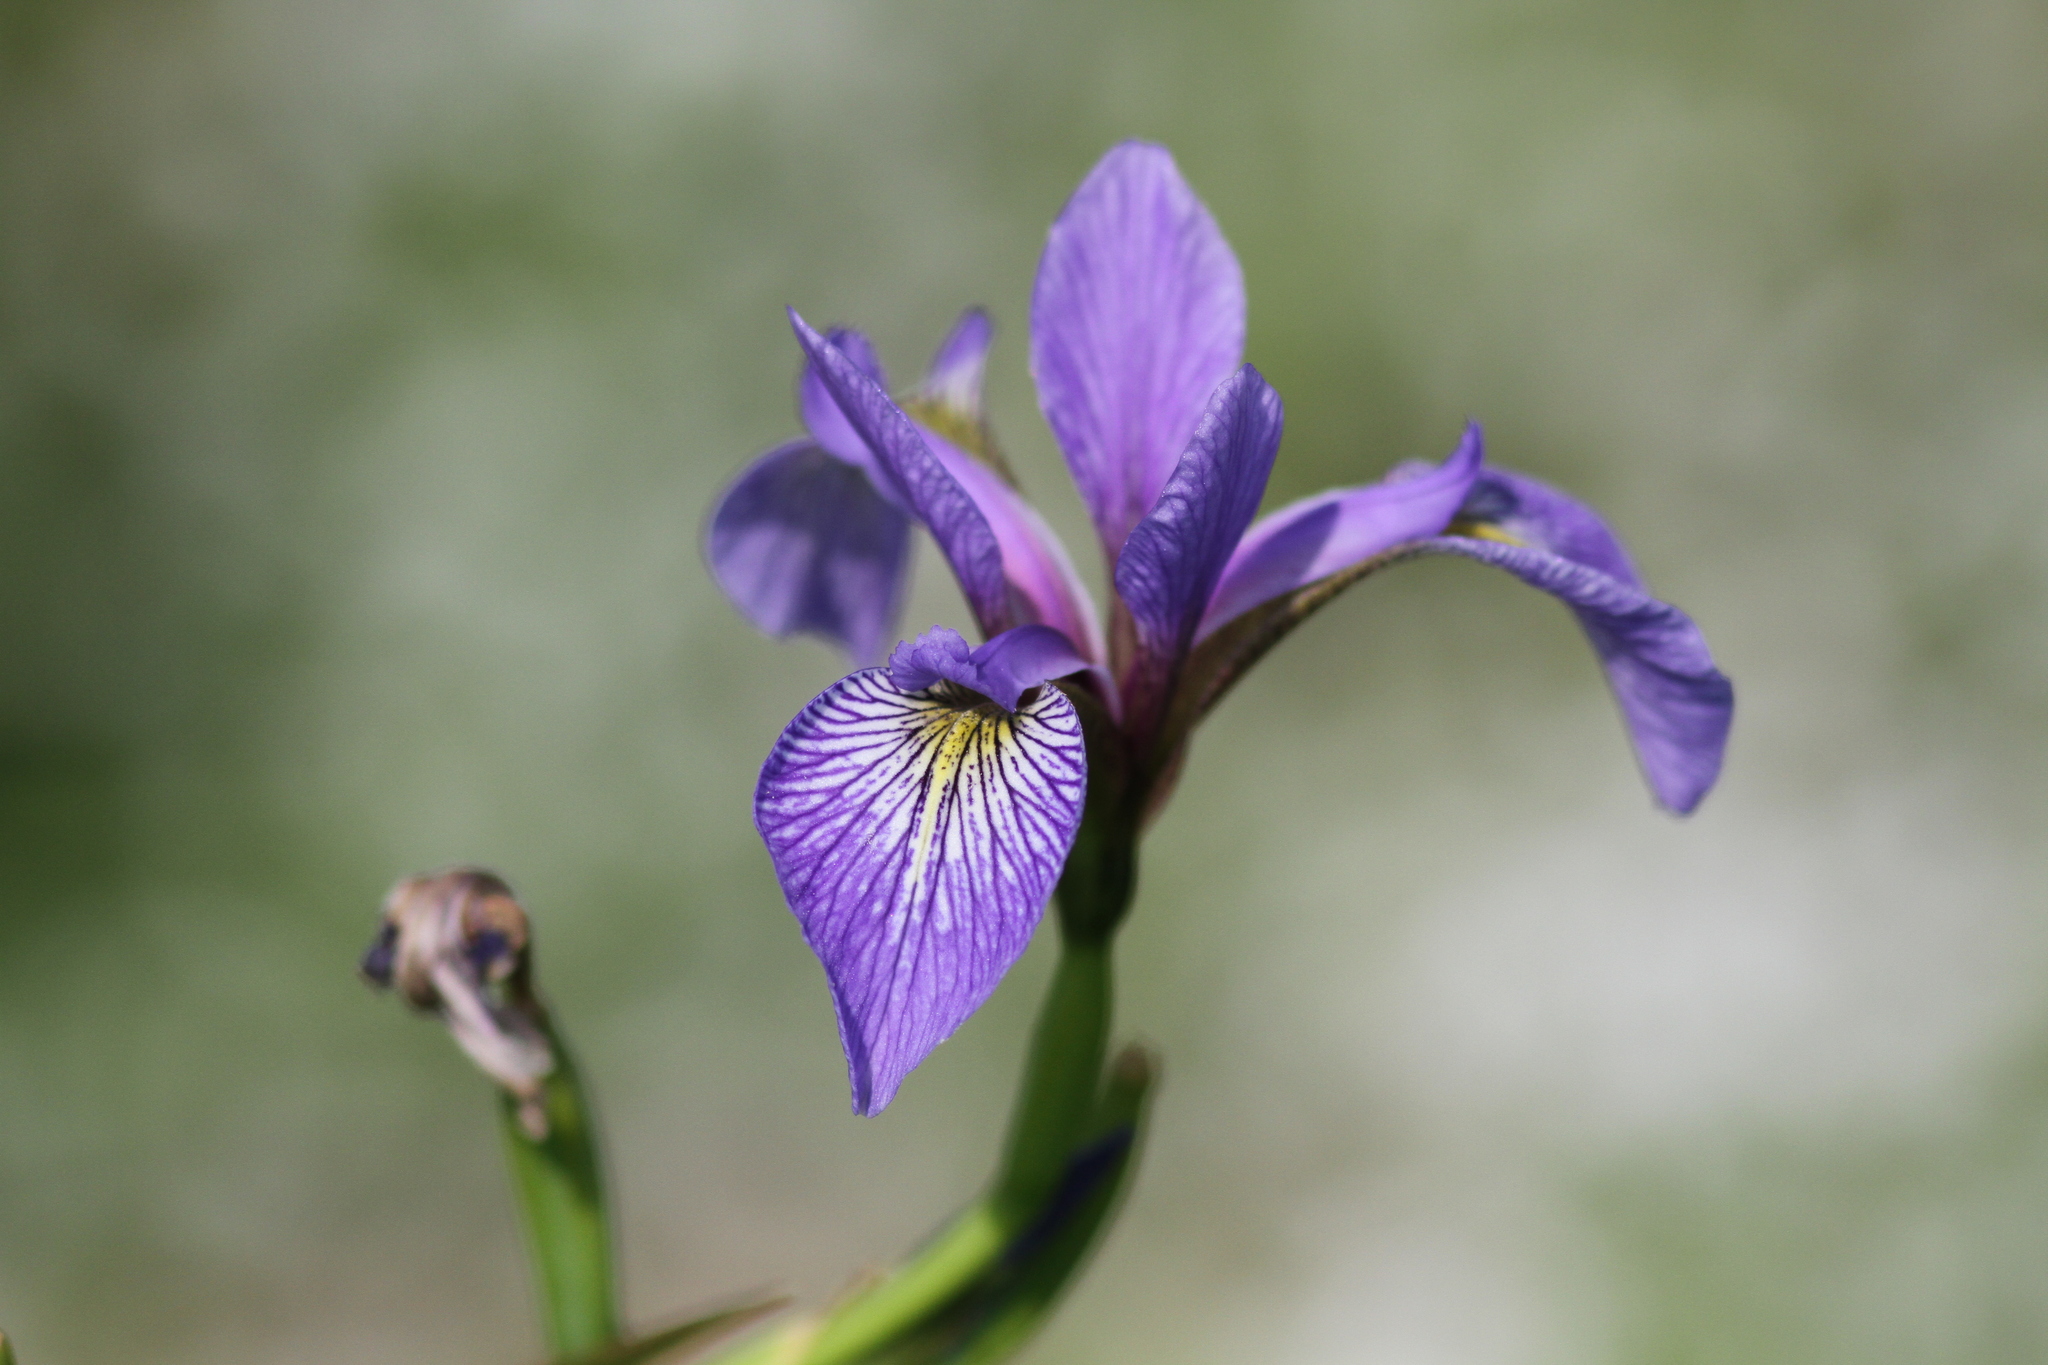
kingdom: Plantae
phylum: Tracheophyta
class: Liliopsida
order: Asparagales
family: Iridaceae
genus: Iris
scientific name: Iris versicolor
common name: Purple iris
